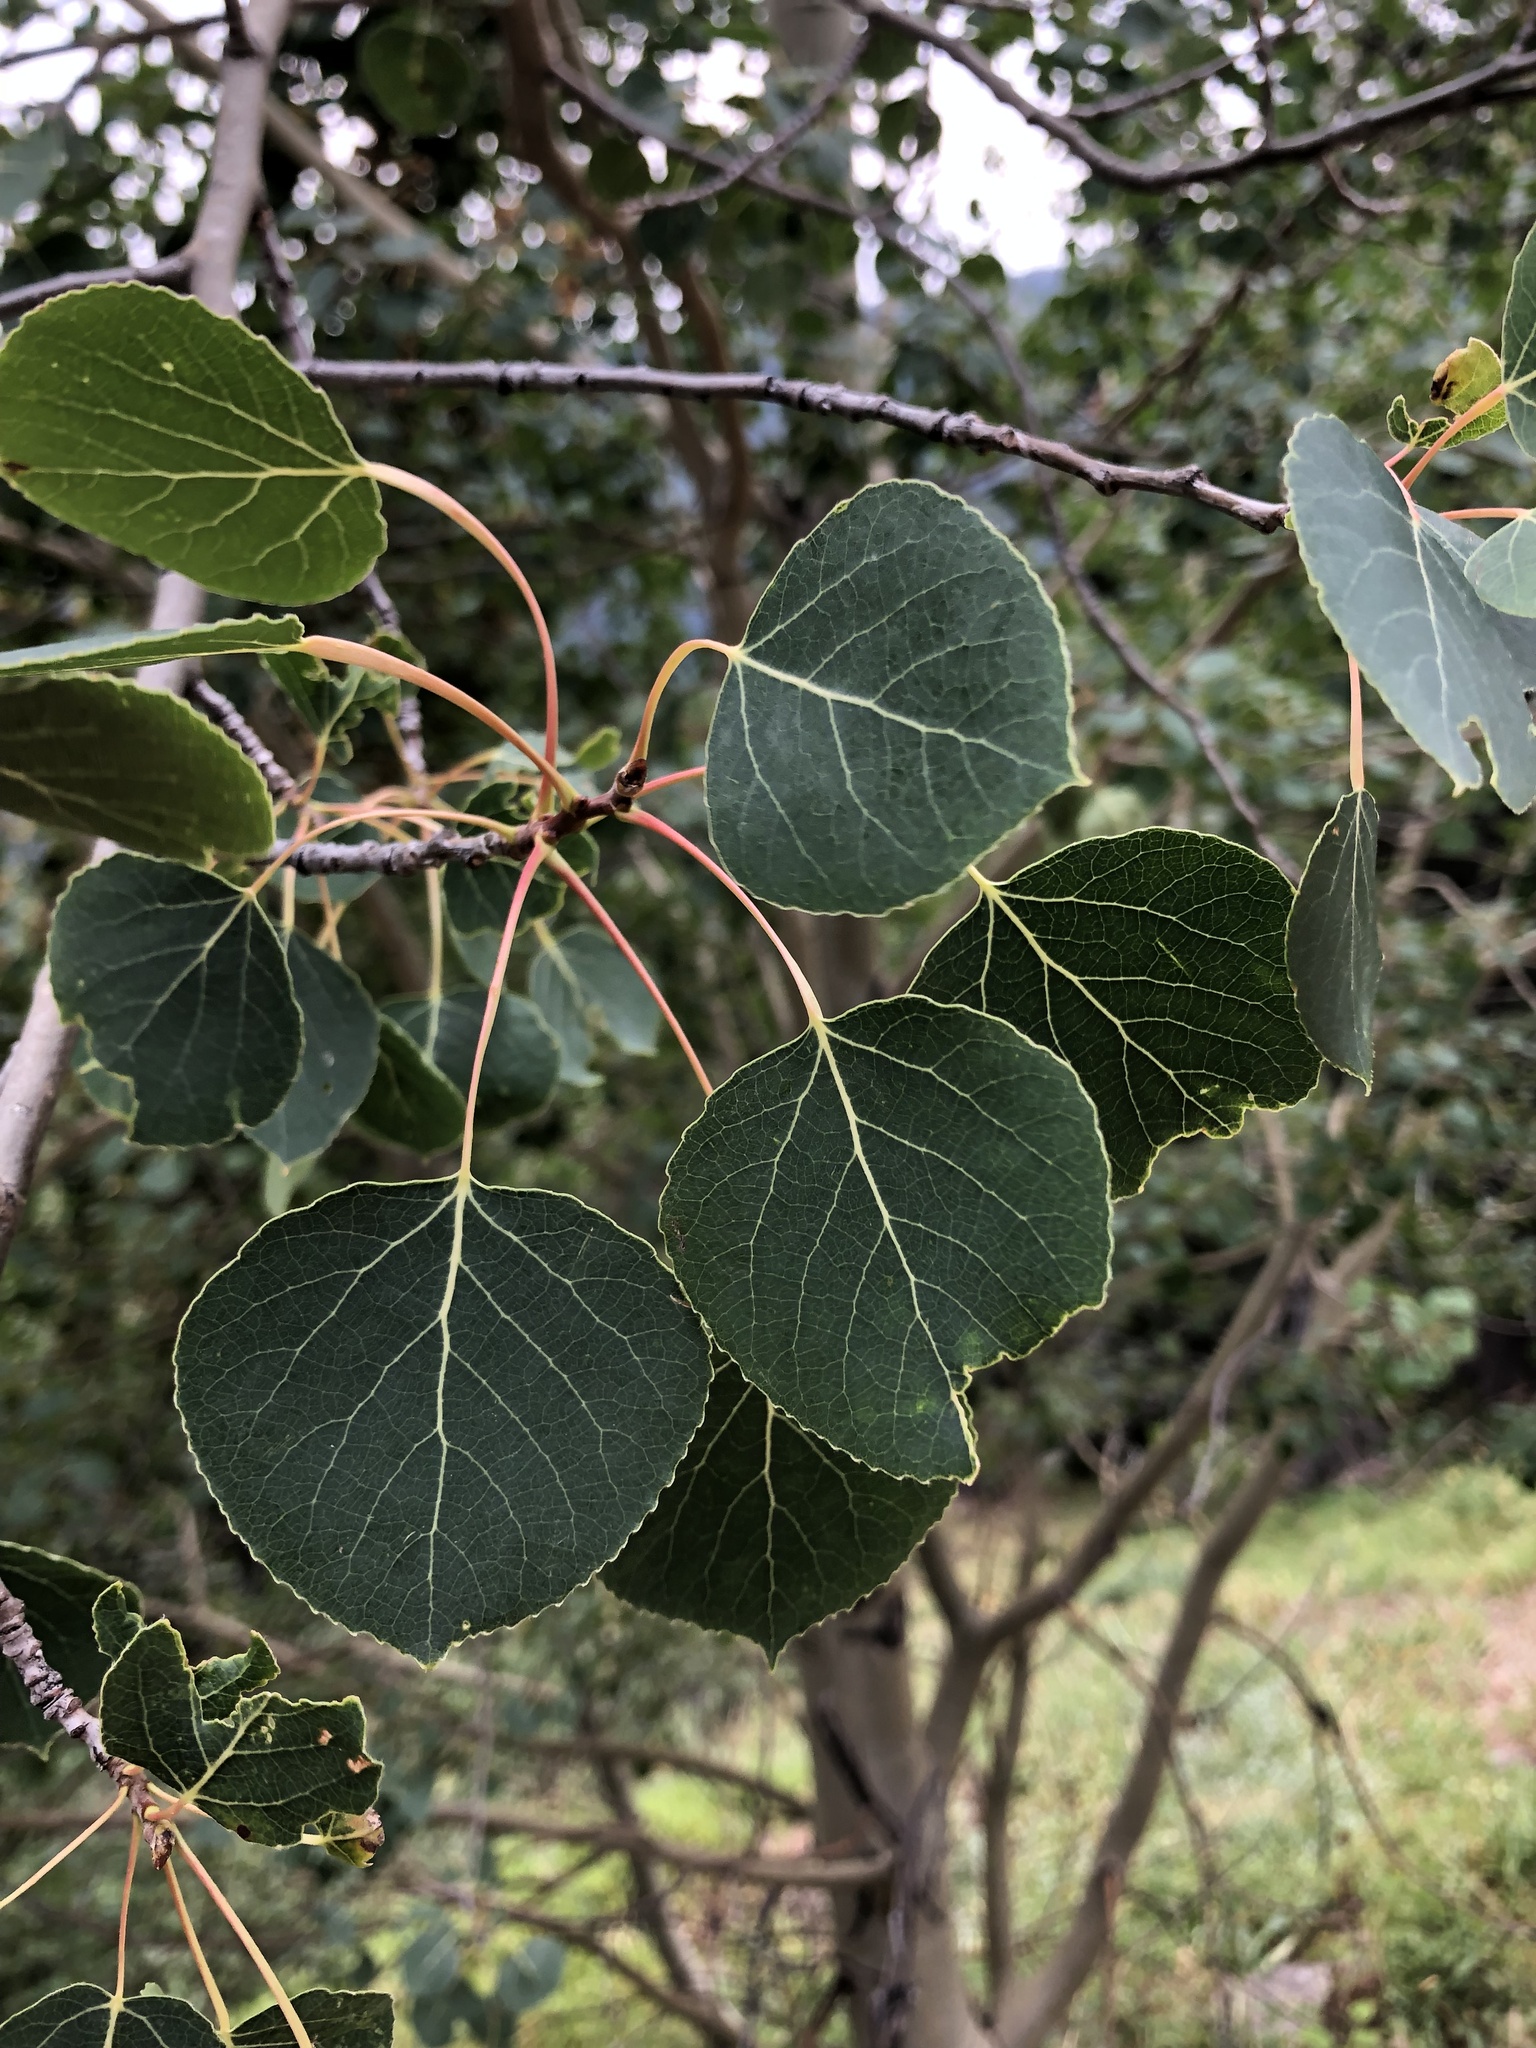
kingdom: Plantae
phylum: Tracheophyta
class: Magnoliopsida
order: Malpighiales
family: Salicaceae
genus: Populus
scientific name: Populus tremuloides
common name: Quaking aspen
